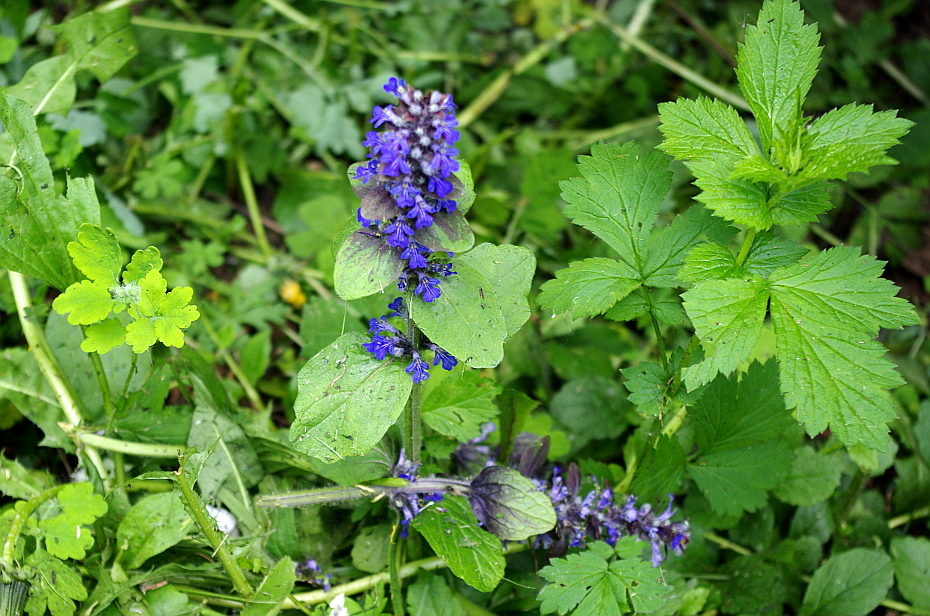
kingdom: Plantae
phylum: Tracheophyta
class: Magnoliopsida
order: Lamiales
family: Lamiaceae
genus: Ajuga
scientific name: Ajuga reptans
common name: Bugle
